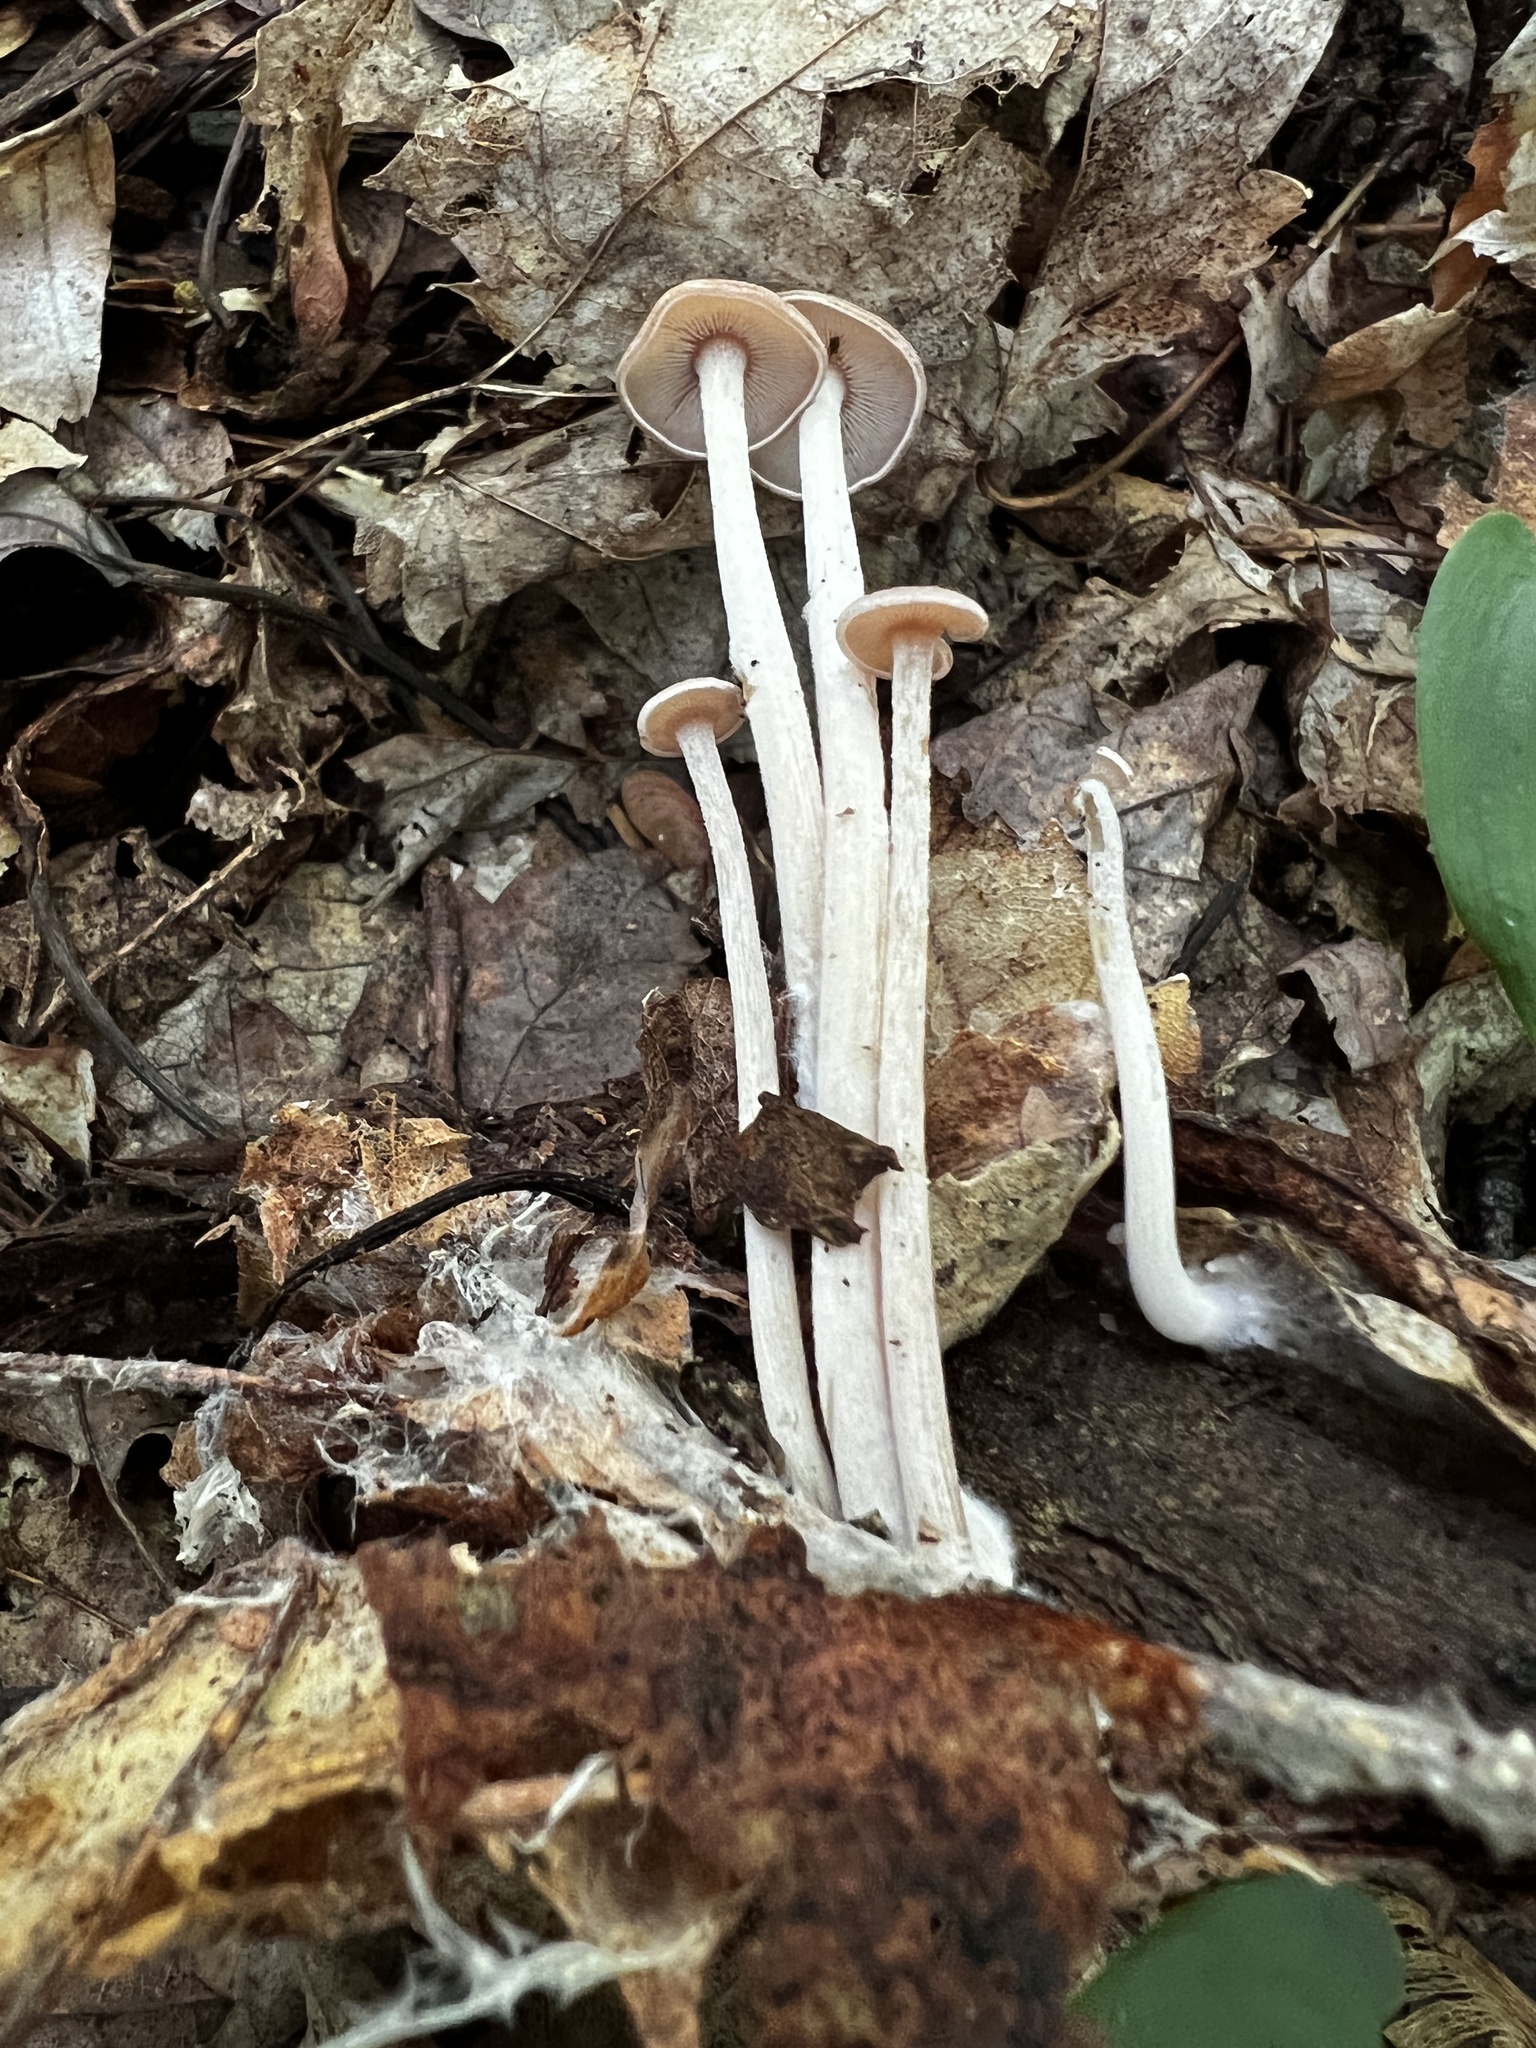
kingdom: Fungi
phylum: Basidiomycota
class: Agaricomycetes
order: Agaricales
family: Omphalotaceae
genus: Collybiopsis
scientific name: Collybiopsis confluens
